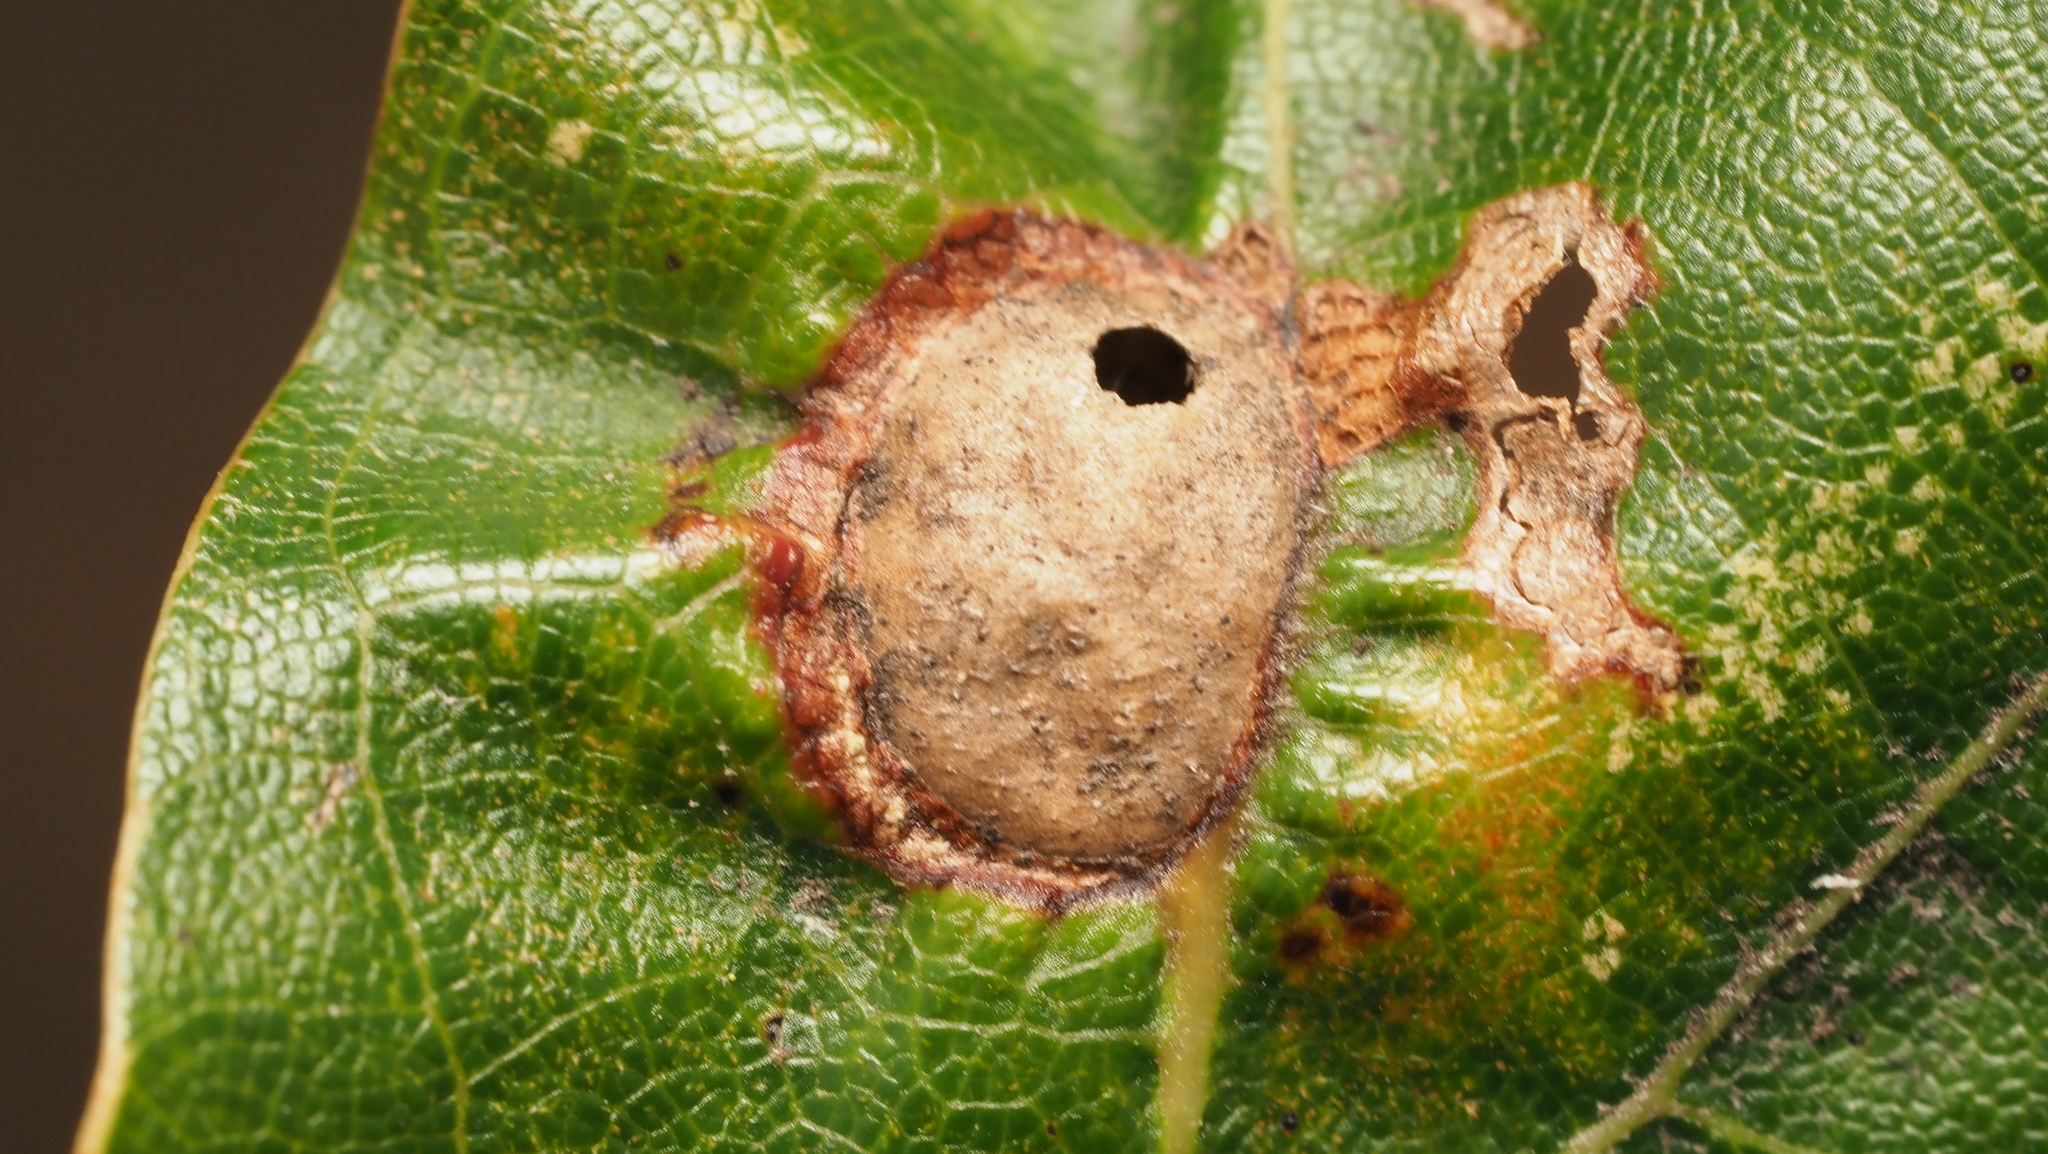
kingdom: Animalia
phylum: Arthropoda
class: Insecta
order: Hymenoptera
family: Cynipidae
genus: Amphibolips
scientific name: Amphibolips
